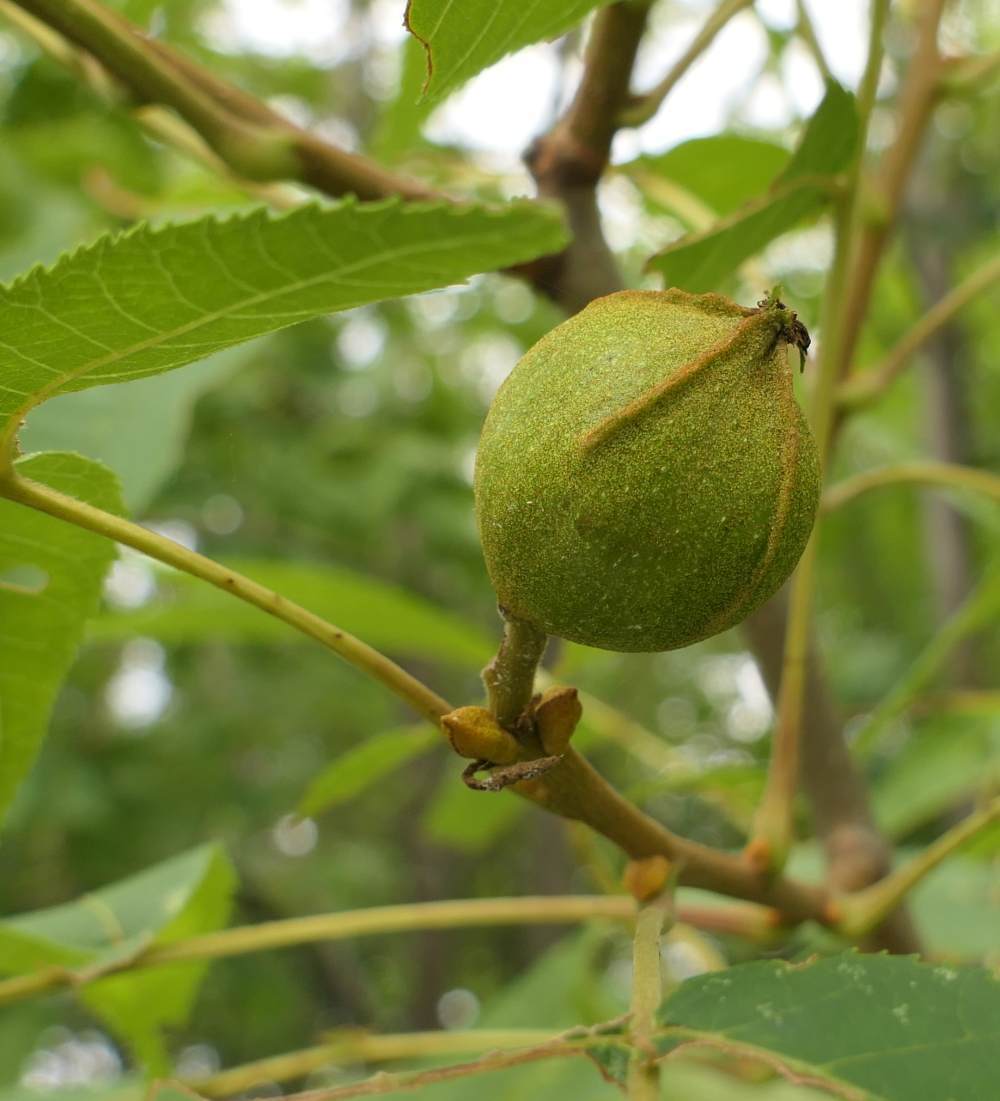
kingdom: Plantae
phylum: Tracheophyta
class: Magnoliopsida
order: Fagales
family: Juglandaceae
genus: Carya
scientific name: Carya cordiformis
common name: Bitternut hickory
